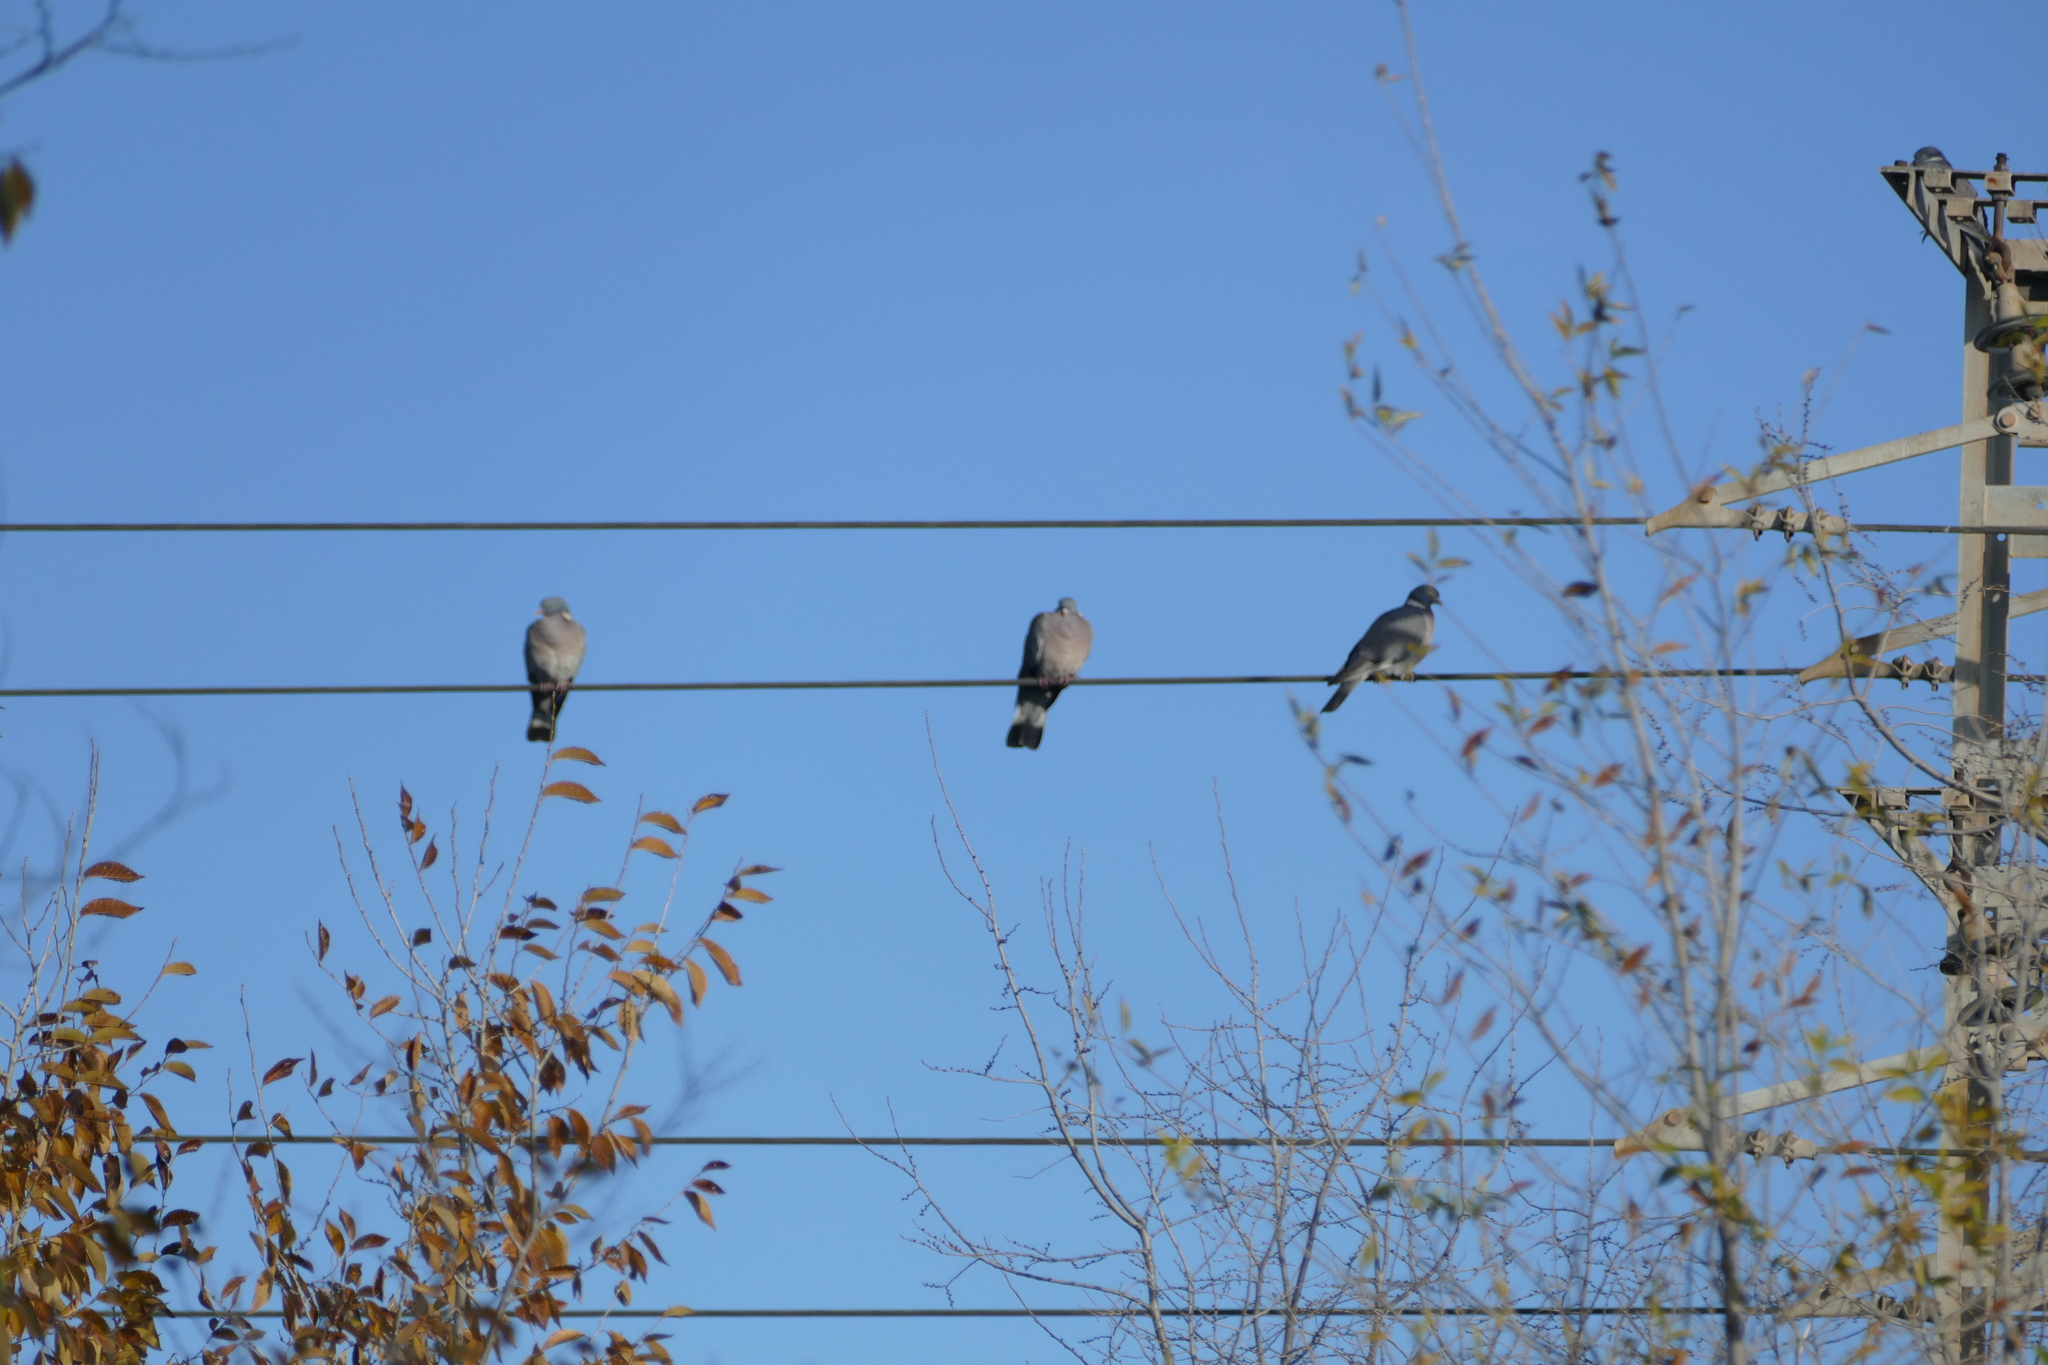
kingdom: Animalia
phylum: Chordata
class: Aves
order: Columbiformes
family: Columbidae
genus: Columba
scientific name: Columba palumbus
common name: Common wood pigeon
